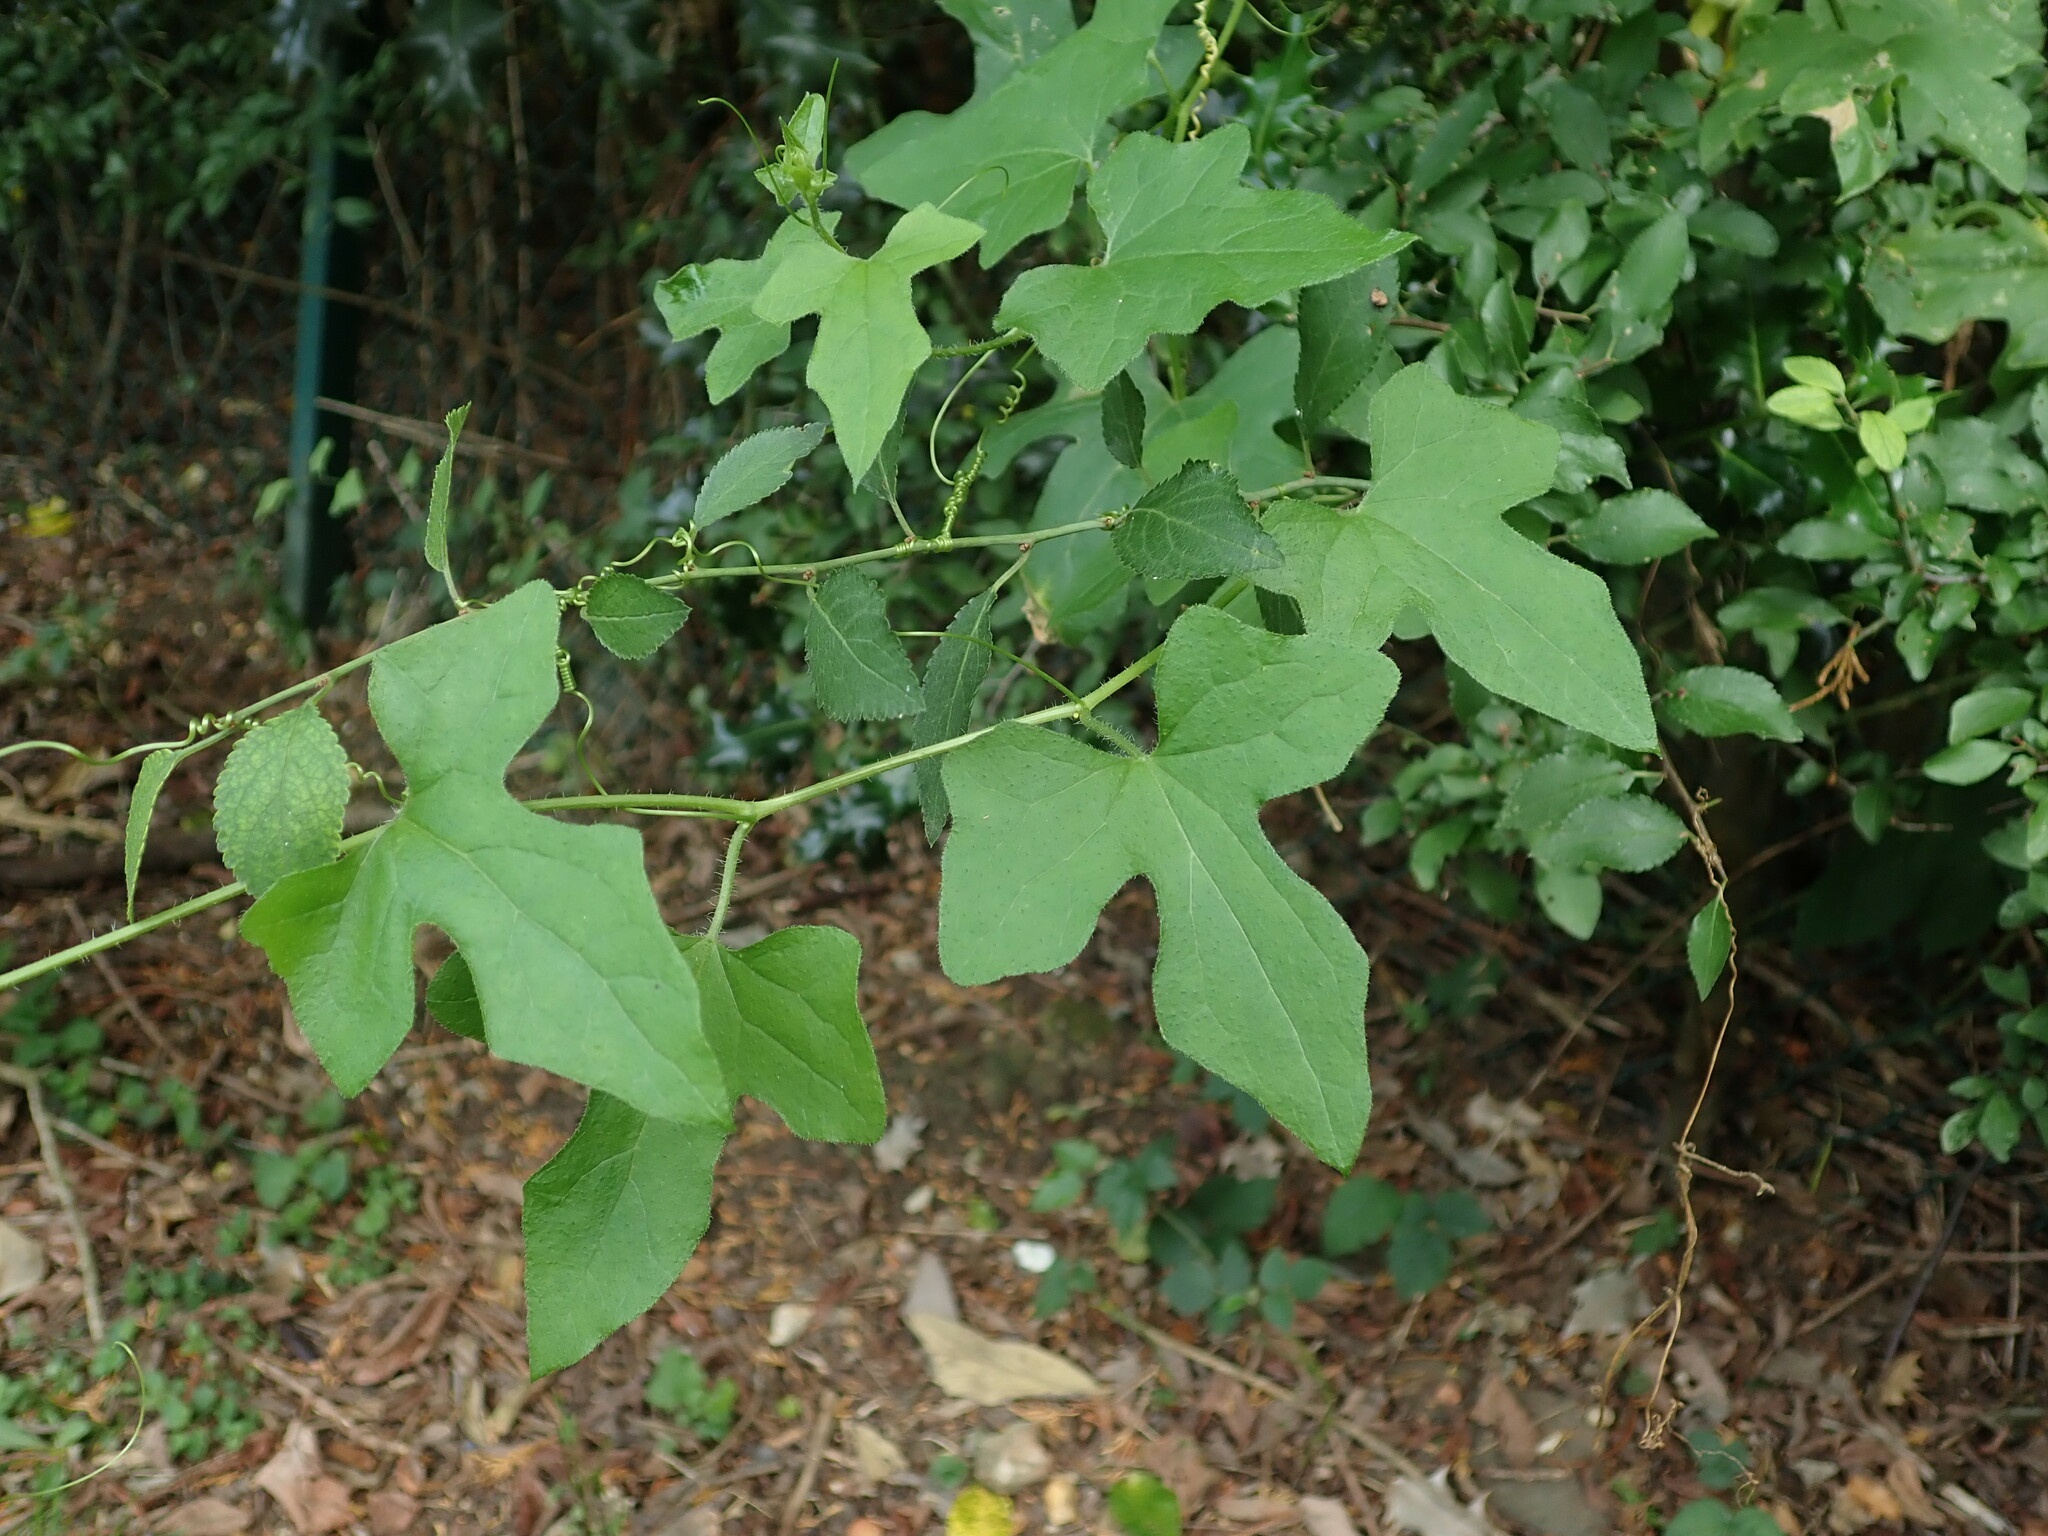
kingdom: Plantae
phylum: Tracheophyta
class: Magnoliopsida
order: Cucurbitales
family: Cucurbitaceae
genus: Bryonia
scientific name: Bryonia dioica
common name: White bryony
